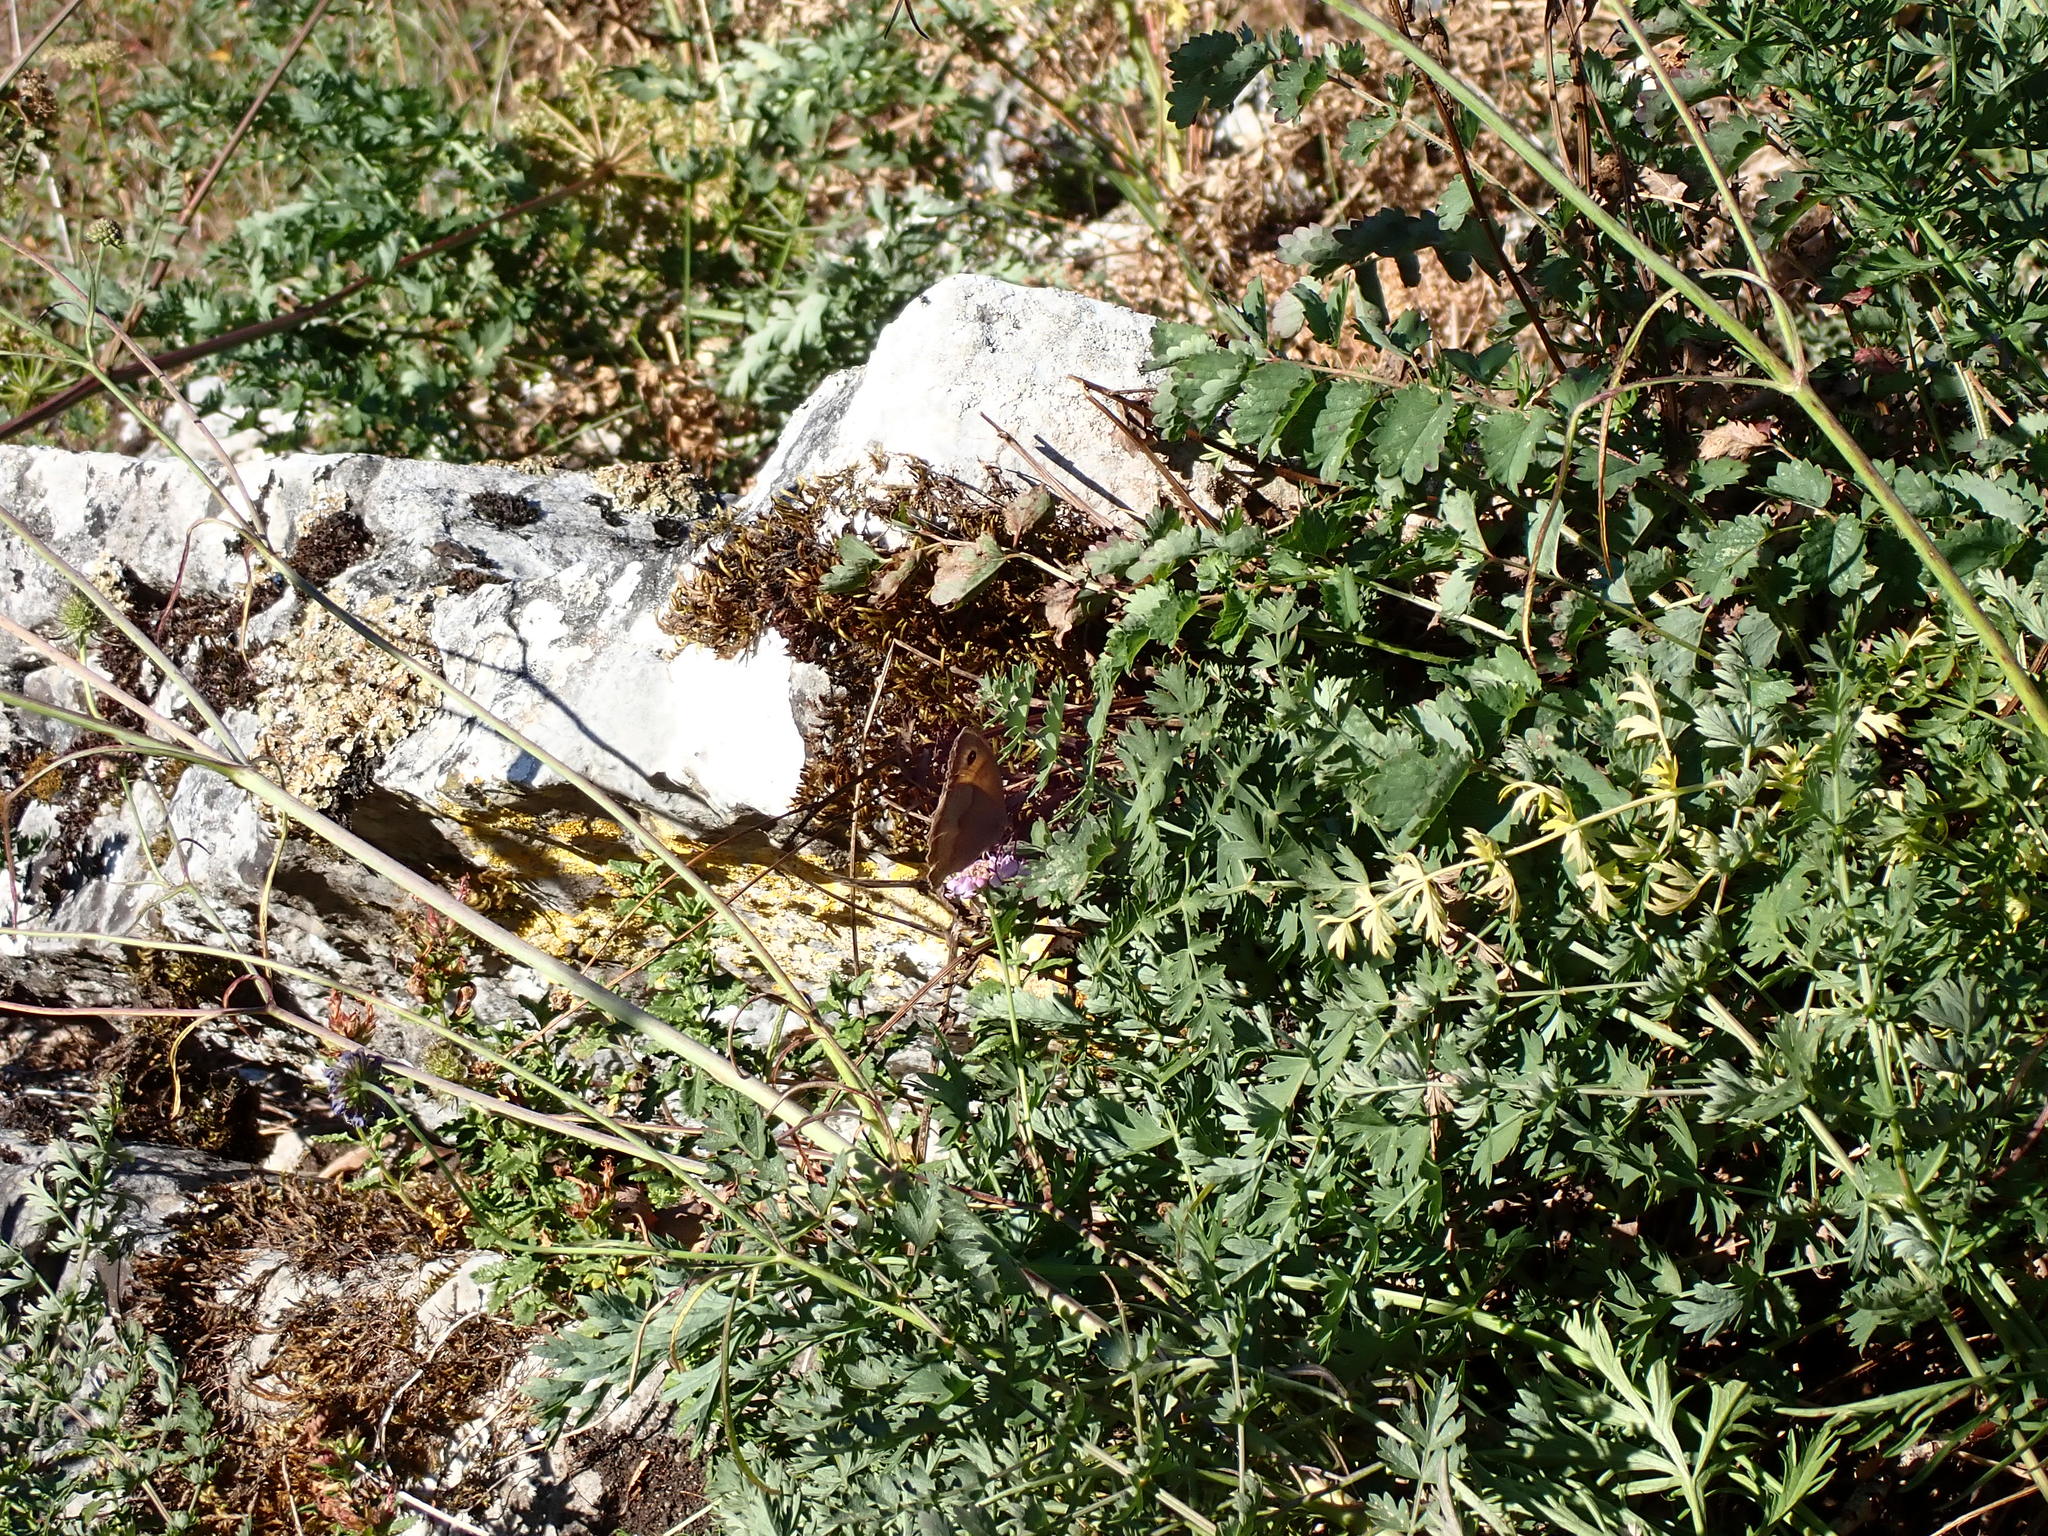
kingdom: Animalia
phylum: Arthropoda
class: Insecta
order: Lepidoptera
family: Nymphalidae
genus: Maniola
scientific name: Maniola jurtina
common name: Meadow brown
